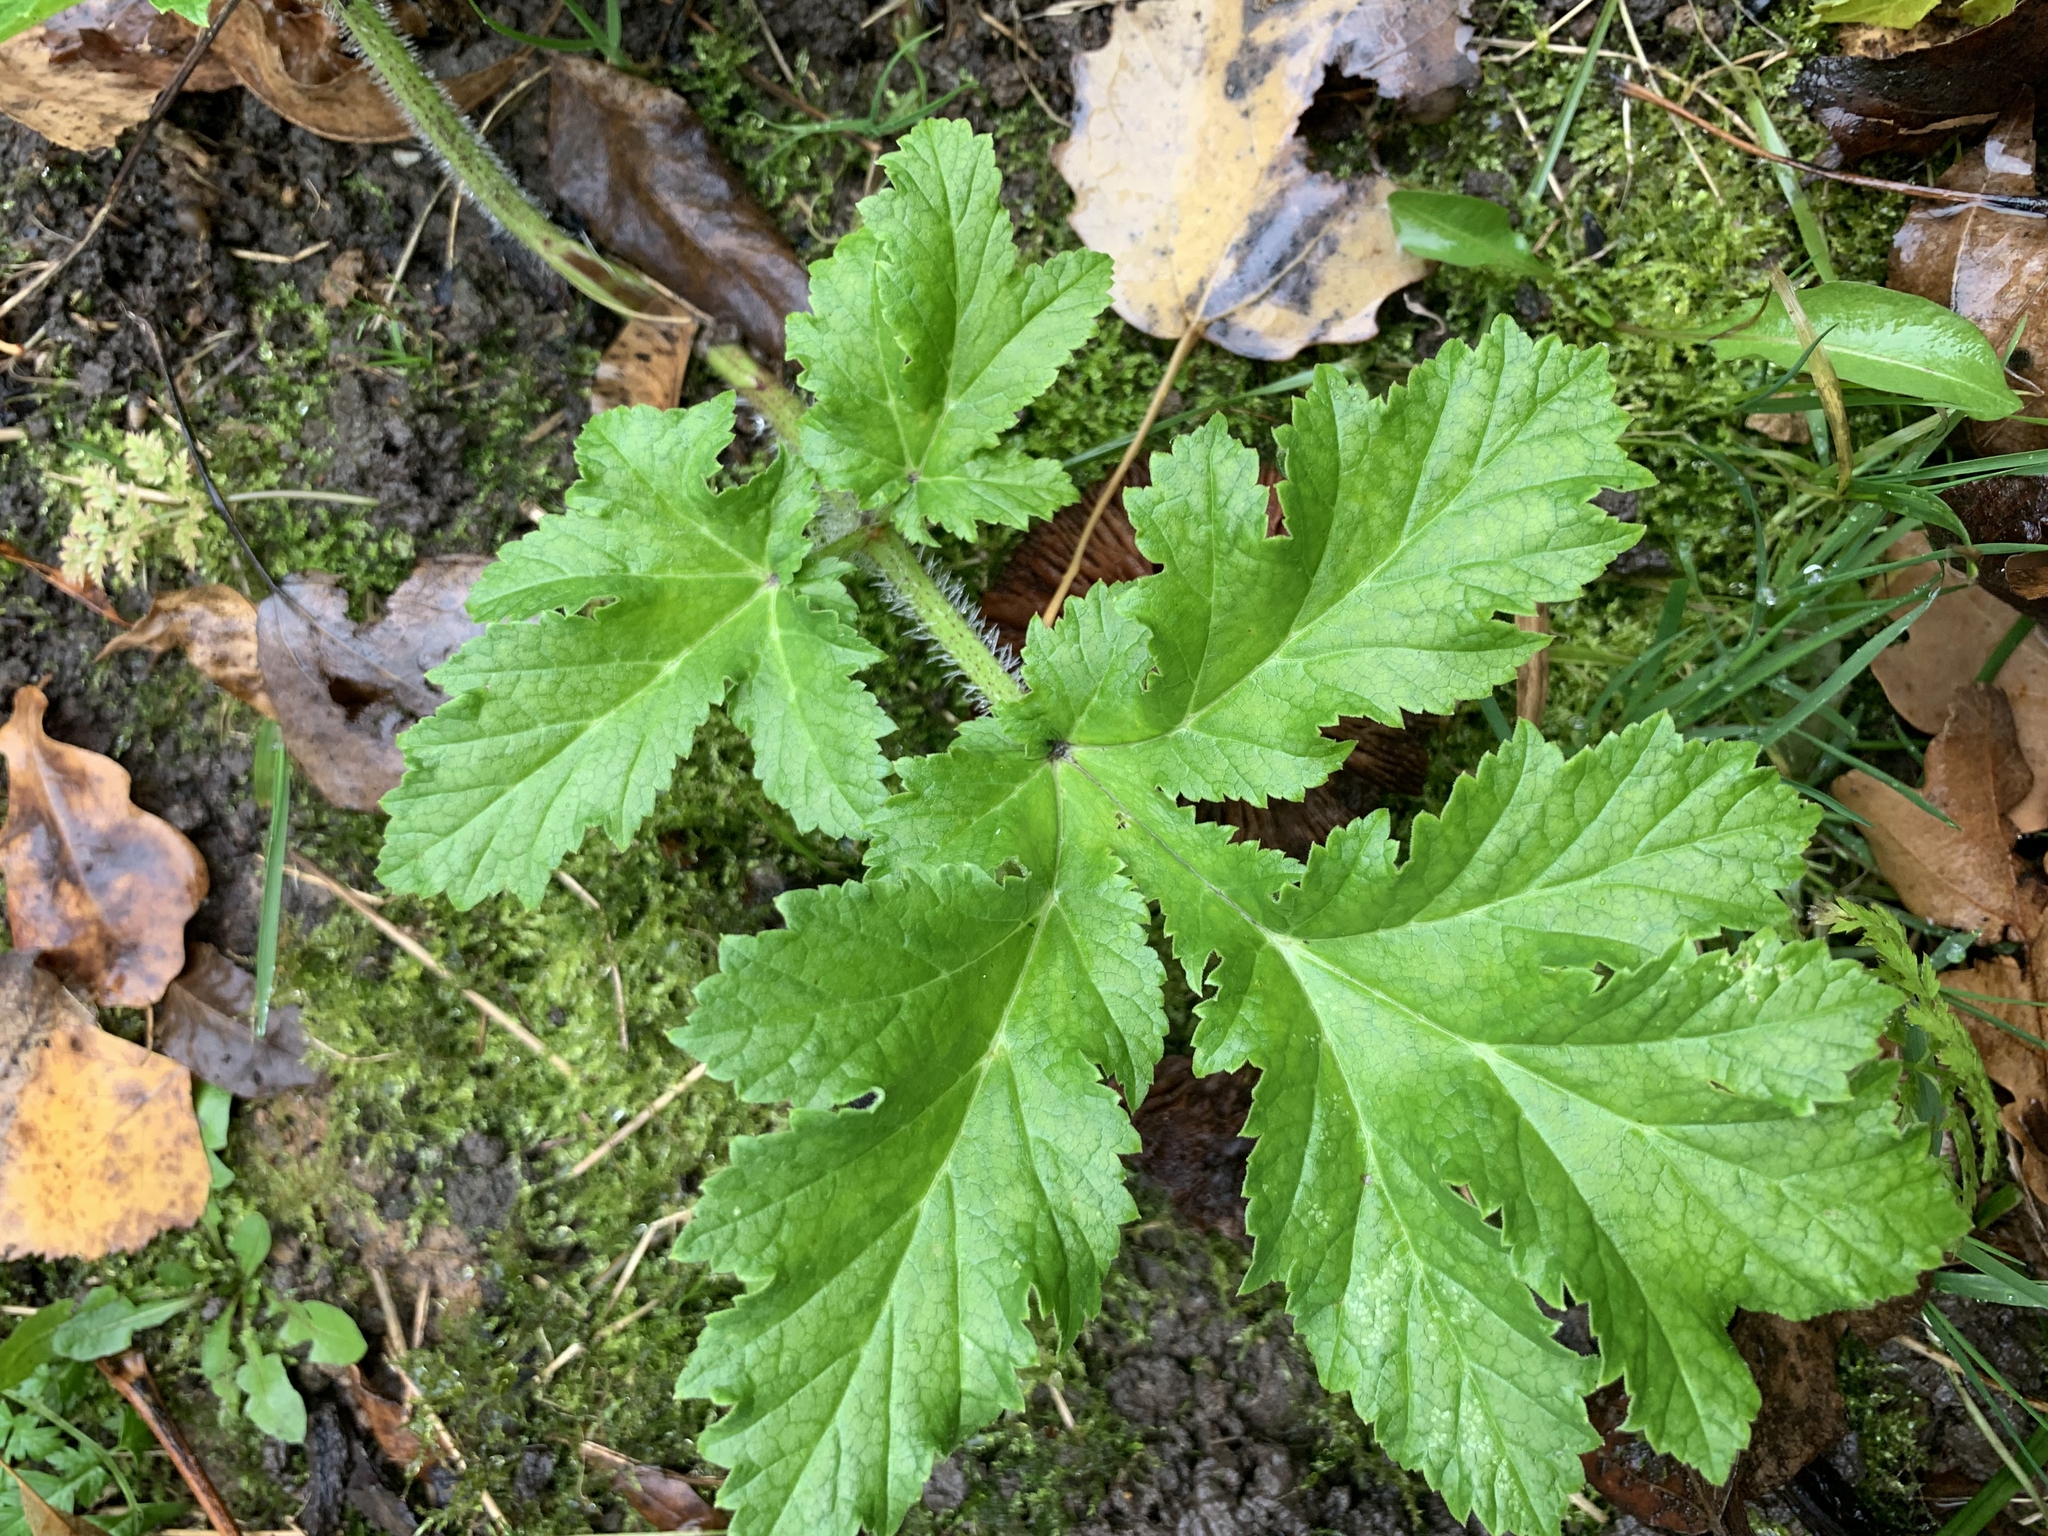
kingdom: Plantae
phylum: Tracheophyta
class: Magnoliopsida
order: Apiales
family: Apiaceae
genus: Heracleum
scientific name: Heracleum sosnowskyi
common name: Sosnowsky's hogweed
